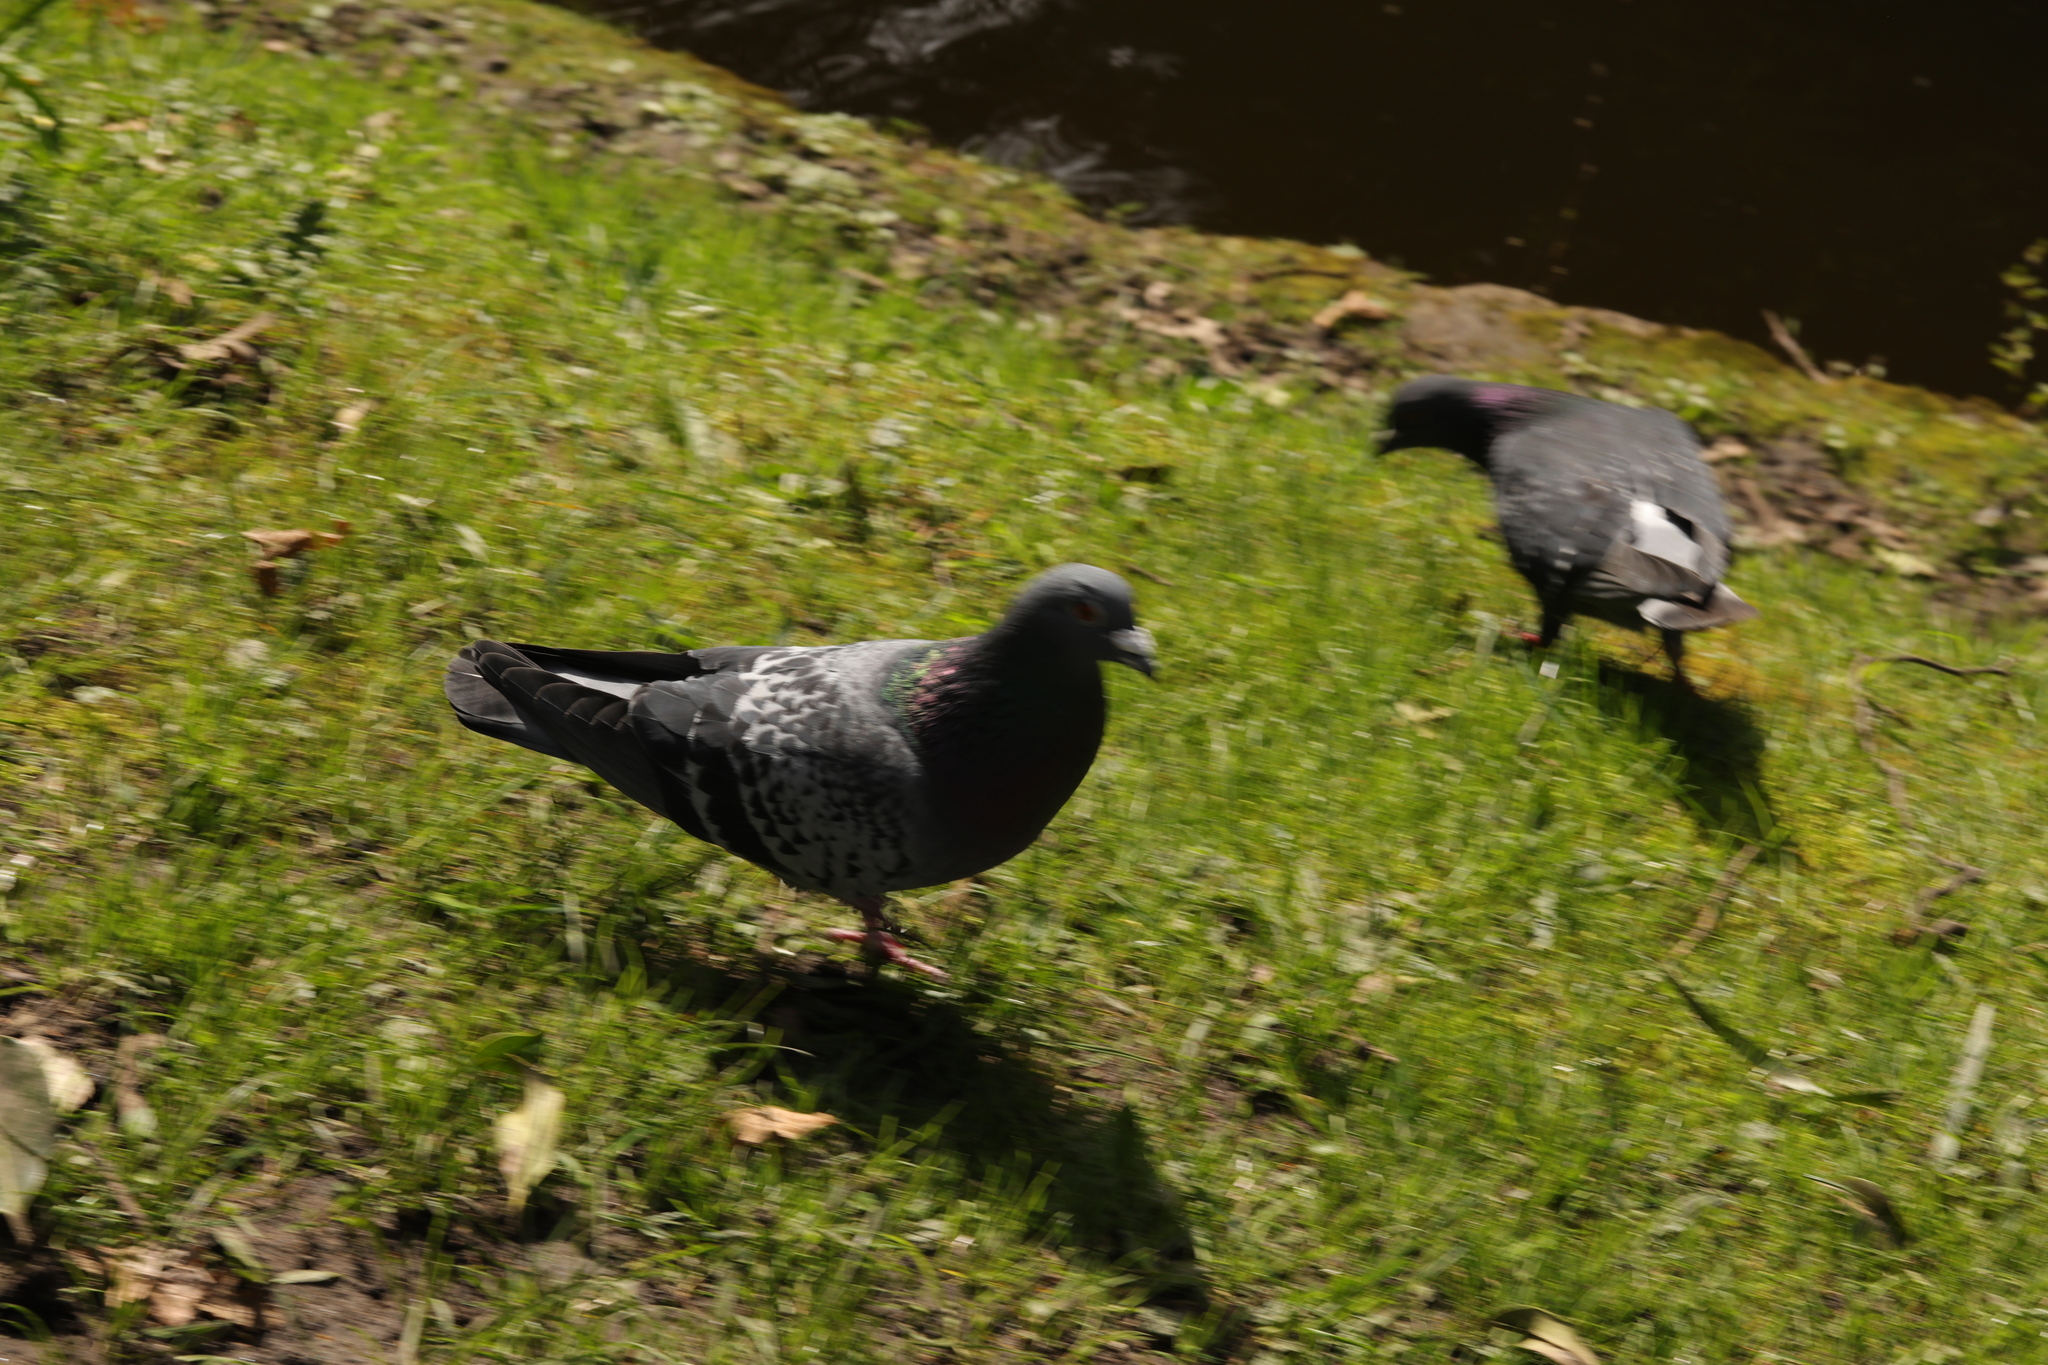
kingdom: Animalia
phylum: Chordata
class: Aves
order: Columbiformes
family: Columbidae
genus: Columba
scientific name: Columba livia
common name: Rock pigeon
